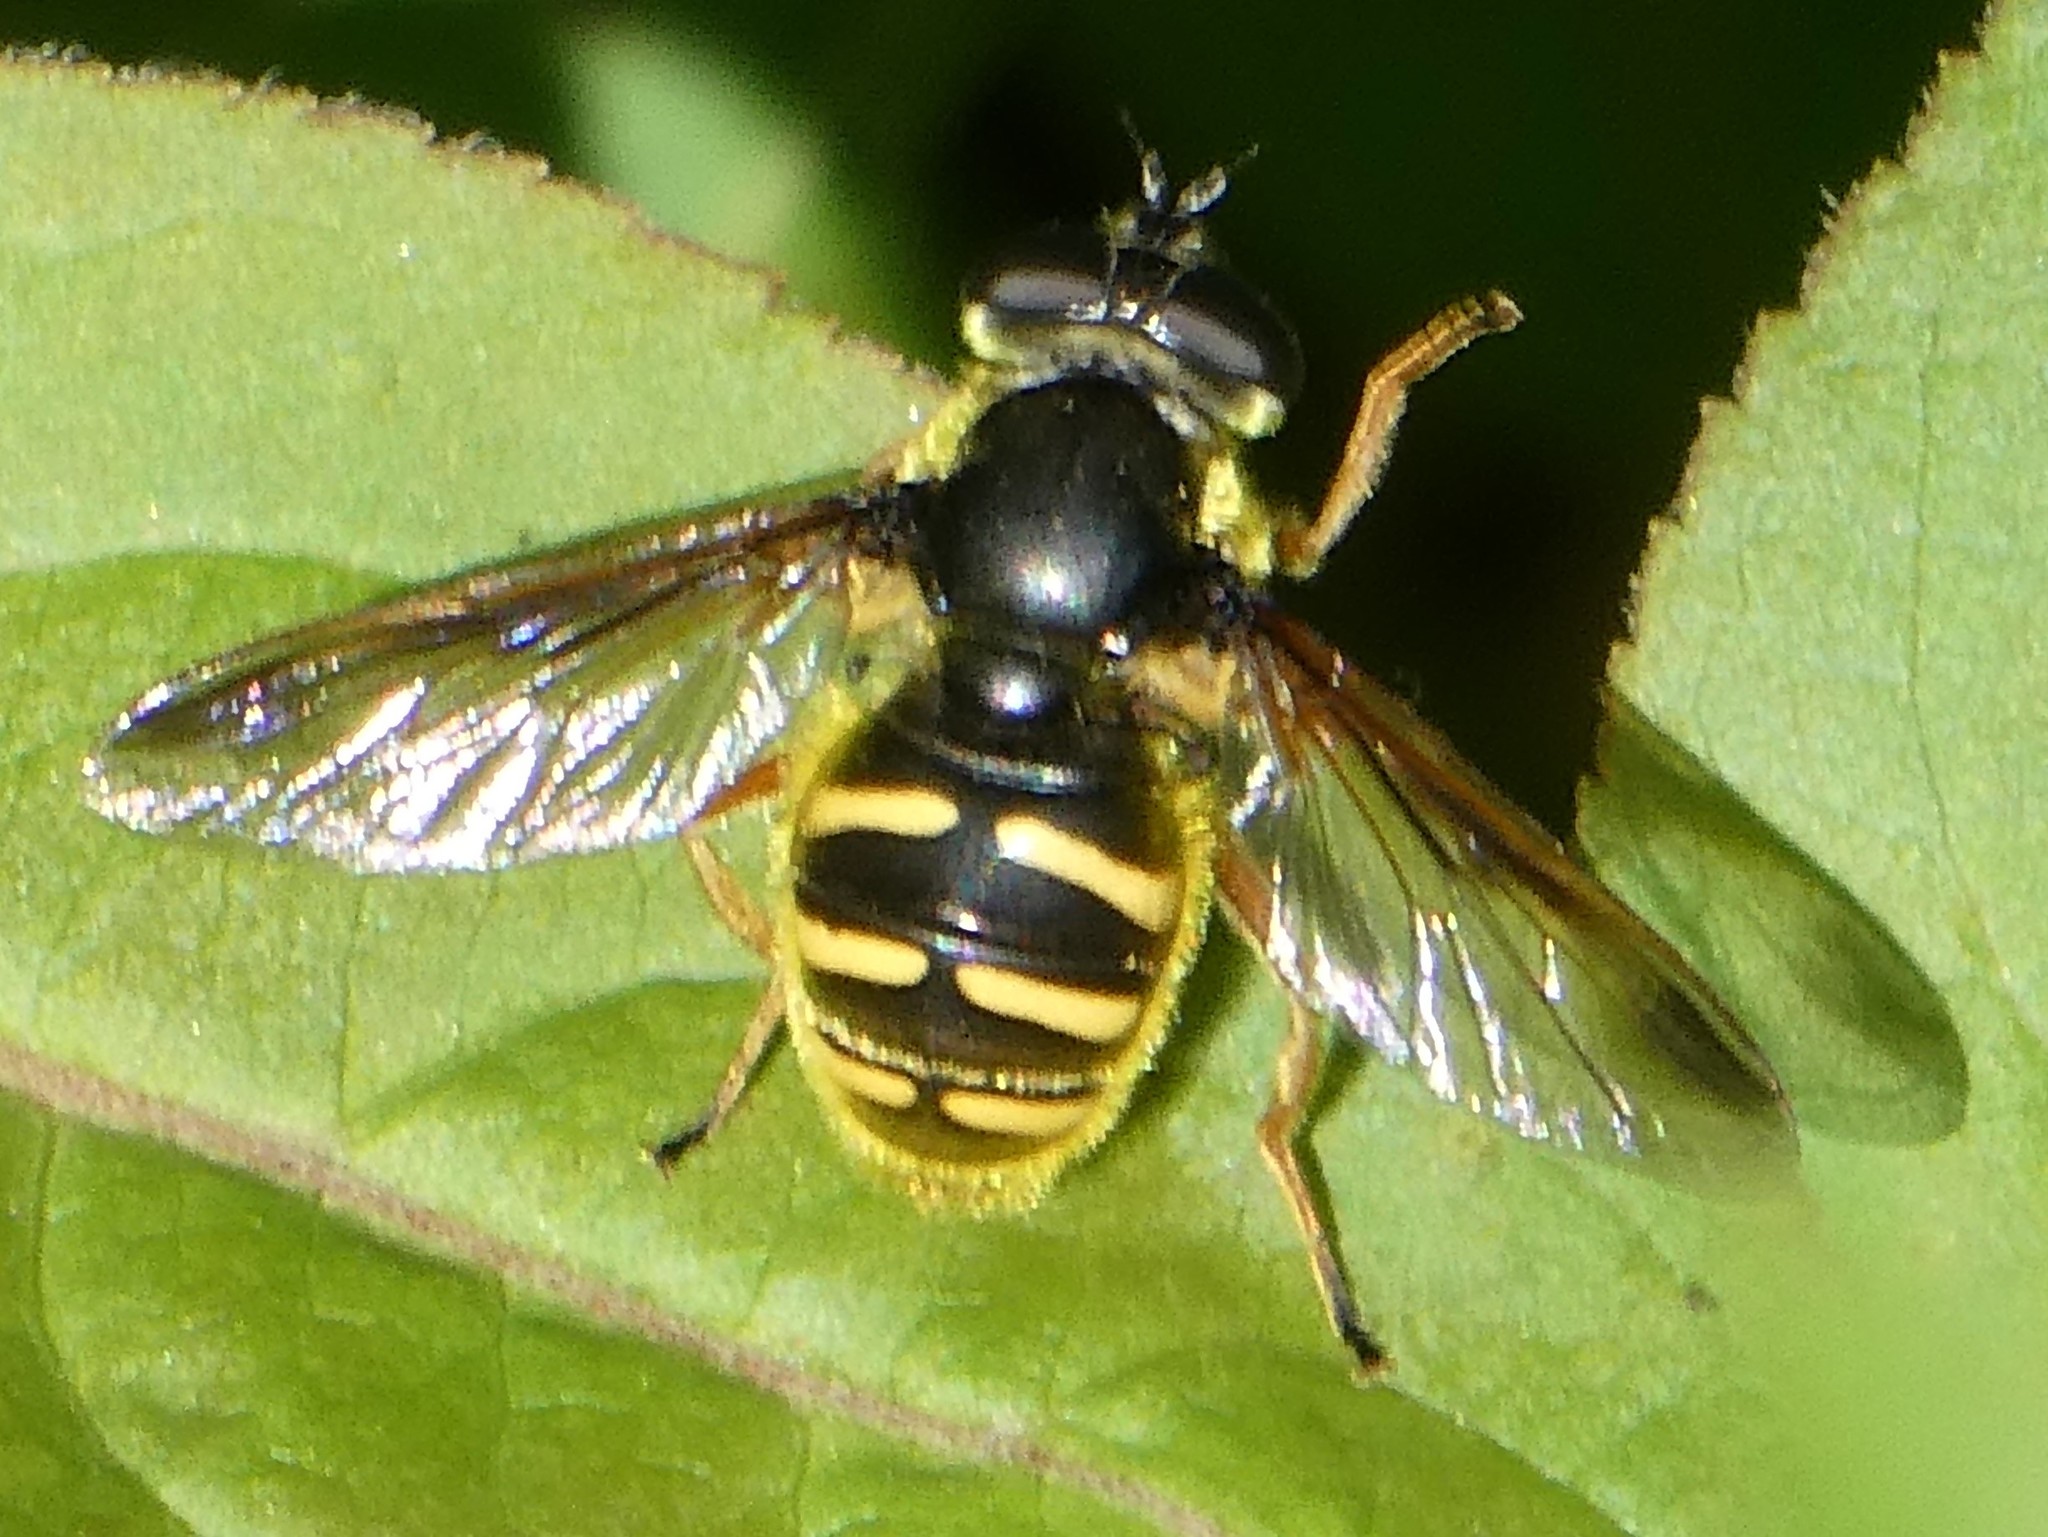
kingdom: Animalia
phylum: Arthropoda
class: Insecta
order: Diptera
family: Syrphidae
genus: Sericomyia
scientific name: Sericomyia chrysotoxoides
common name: Oblique-banded pond fly
